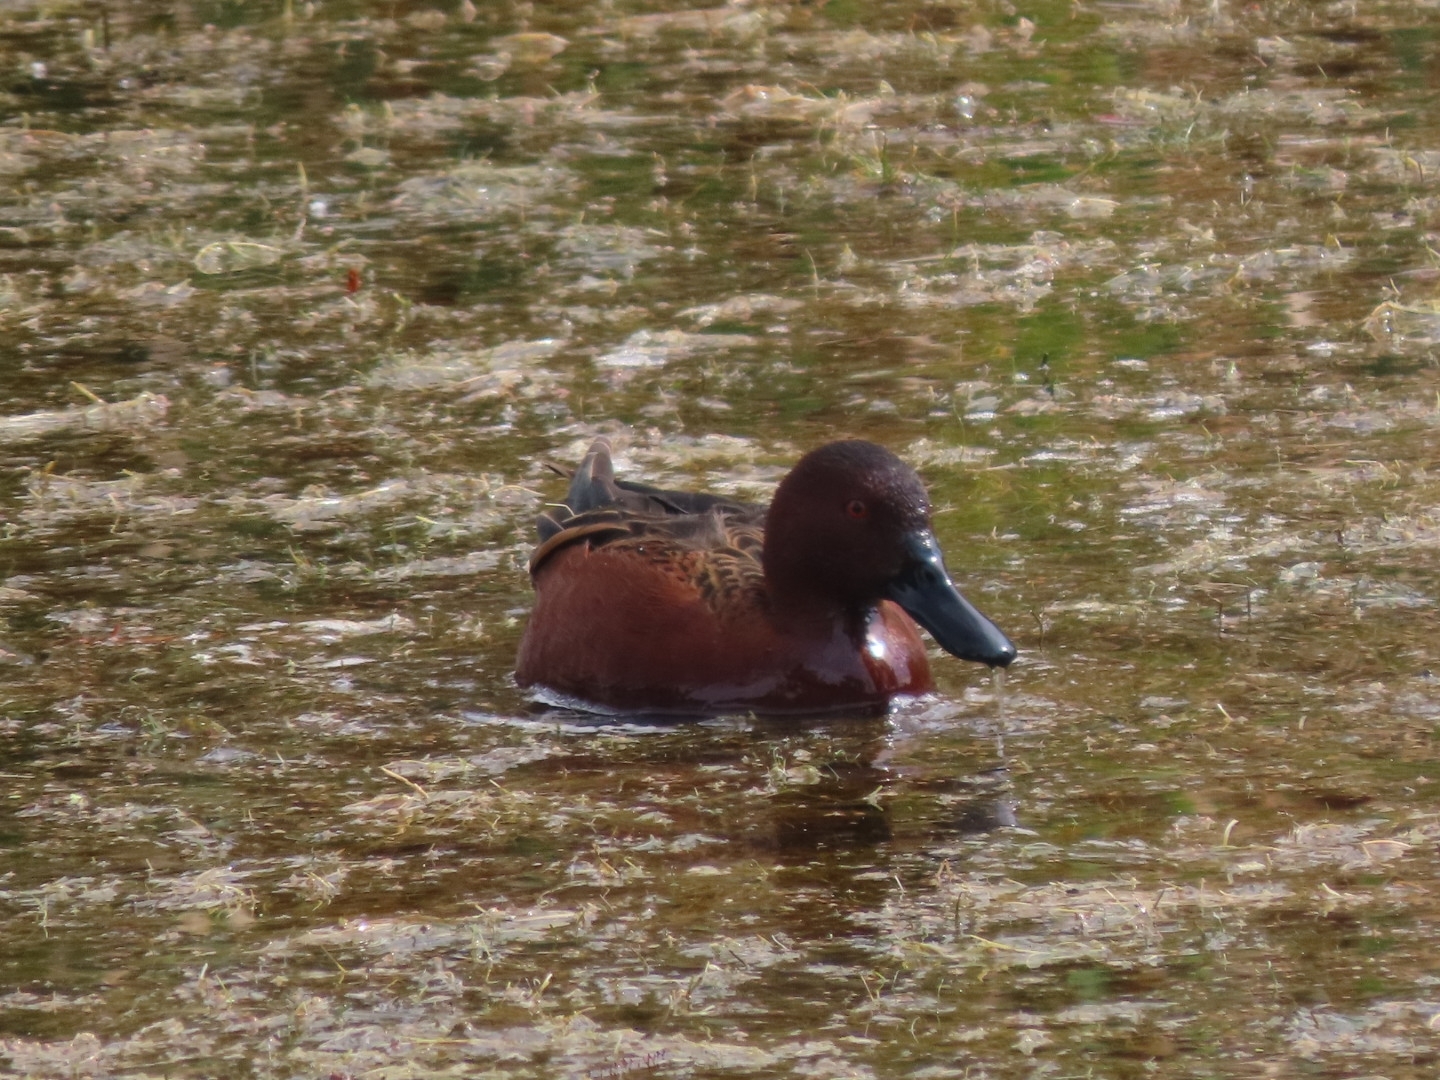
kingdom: Animalia
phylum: Chordata
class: Aves
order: Anseriformes
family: Anatidae
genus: Spatula
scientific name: Spatula cyanoptera
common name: Cinnamon teal
